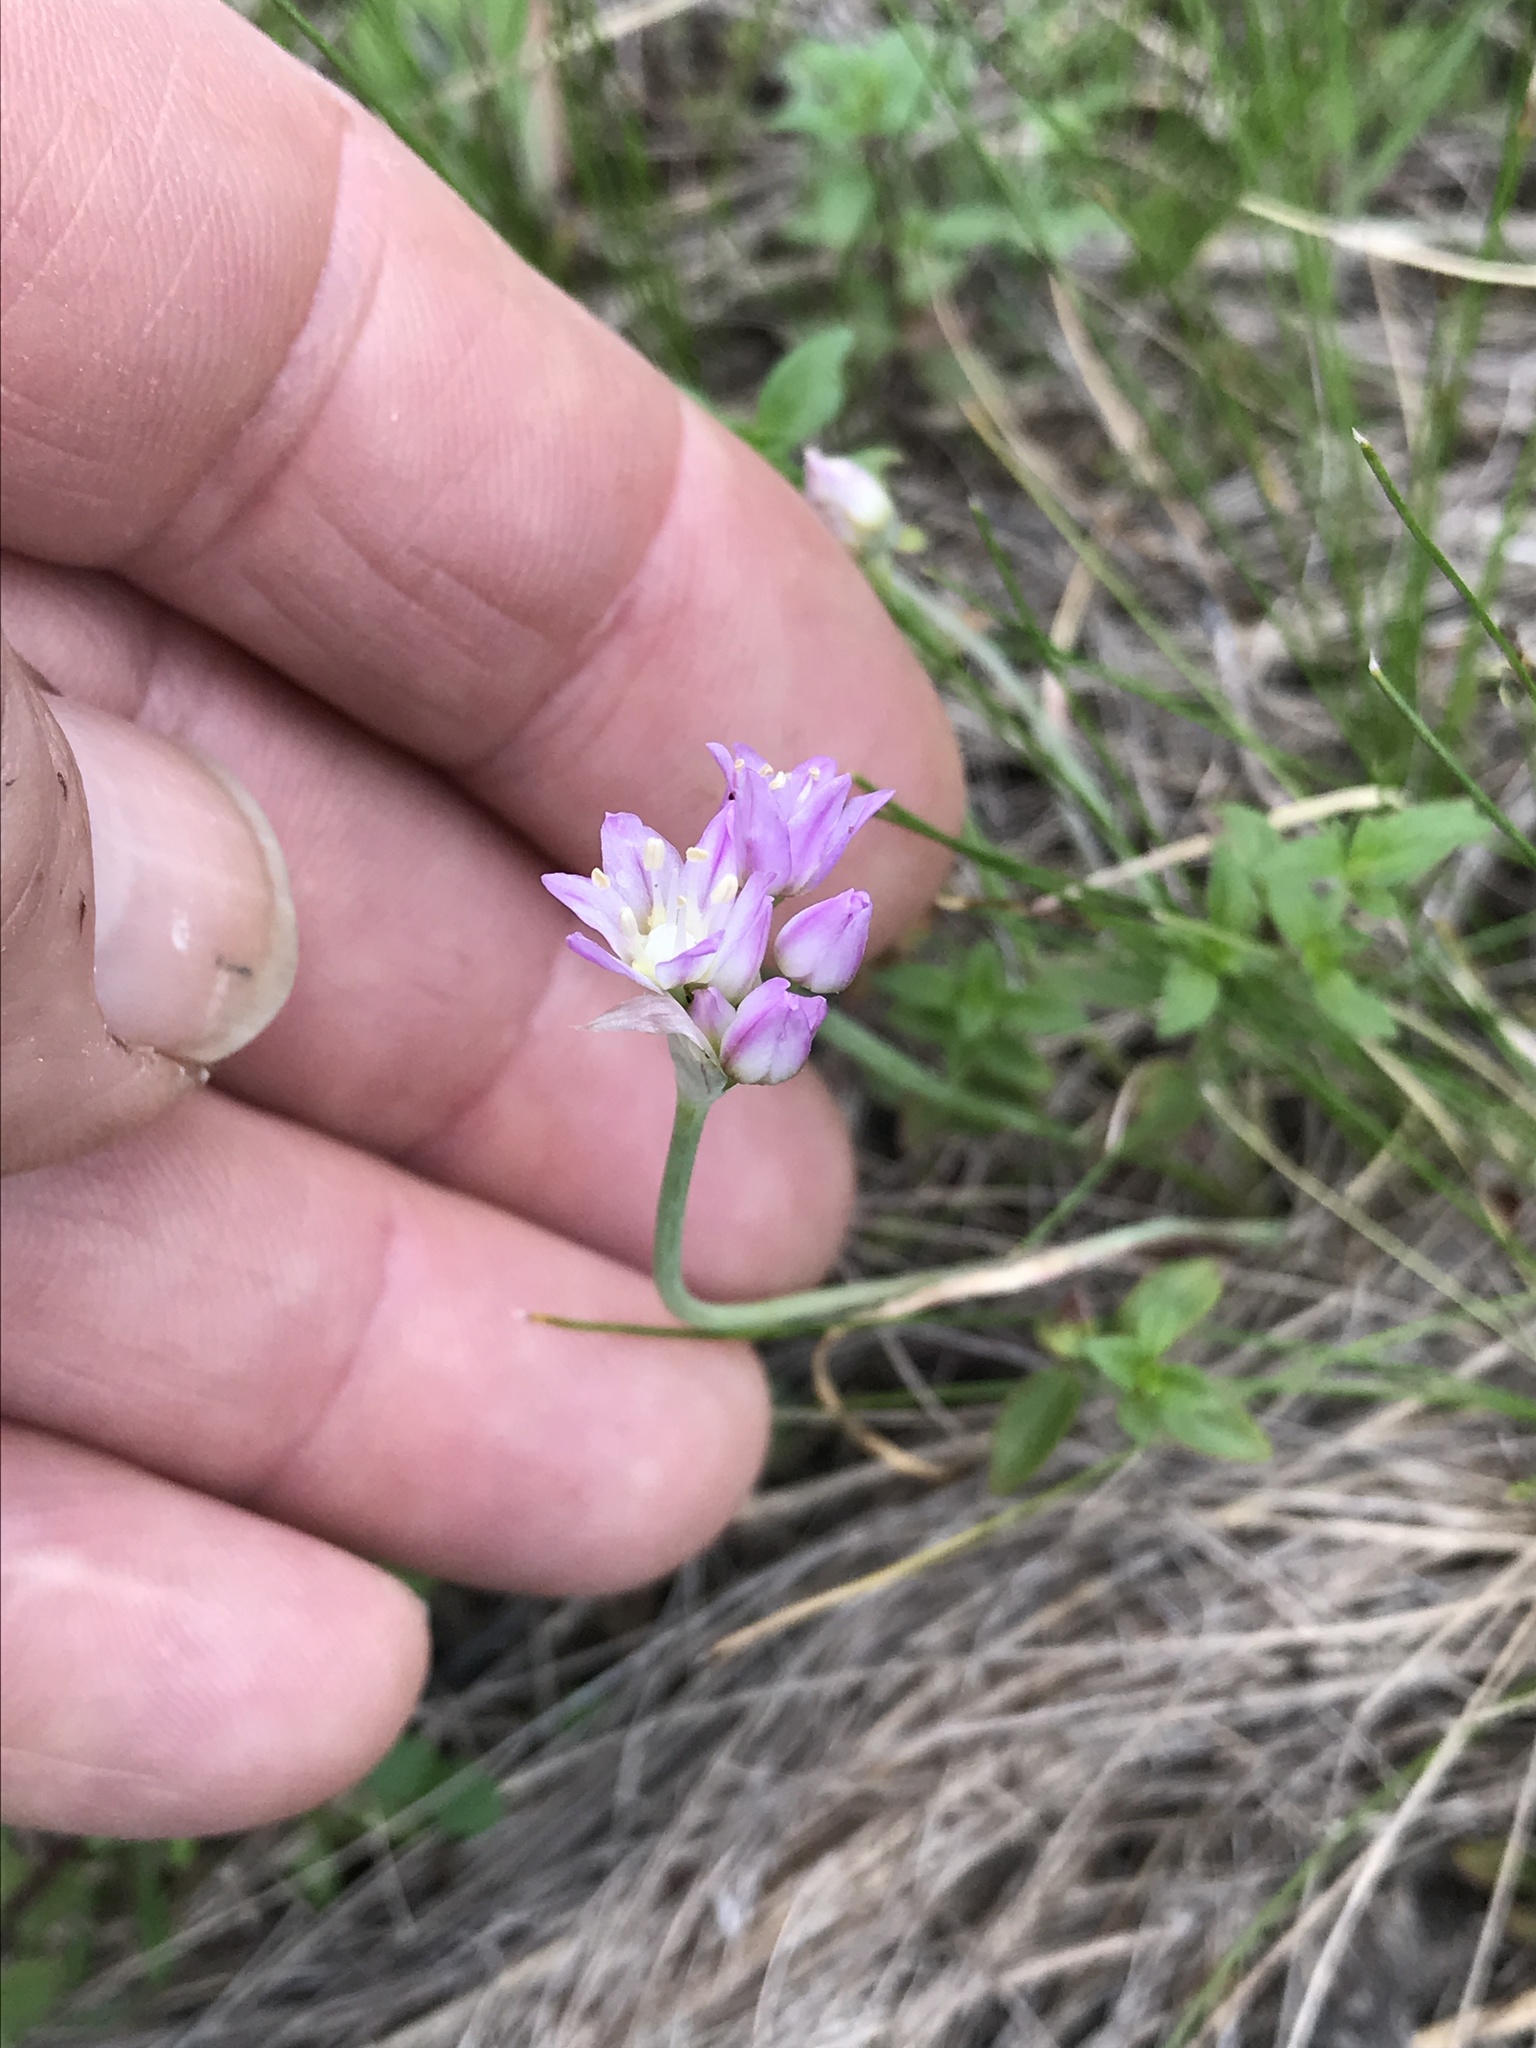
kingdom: Plantae
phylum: Tracheophyta
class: Liliopsida
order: Asparagales
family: Amaryllidaceae
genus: Allium
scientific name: Allium drummondii
